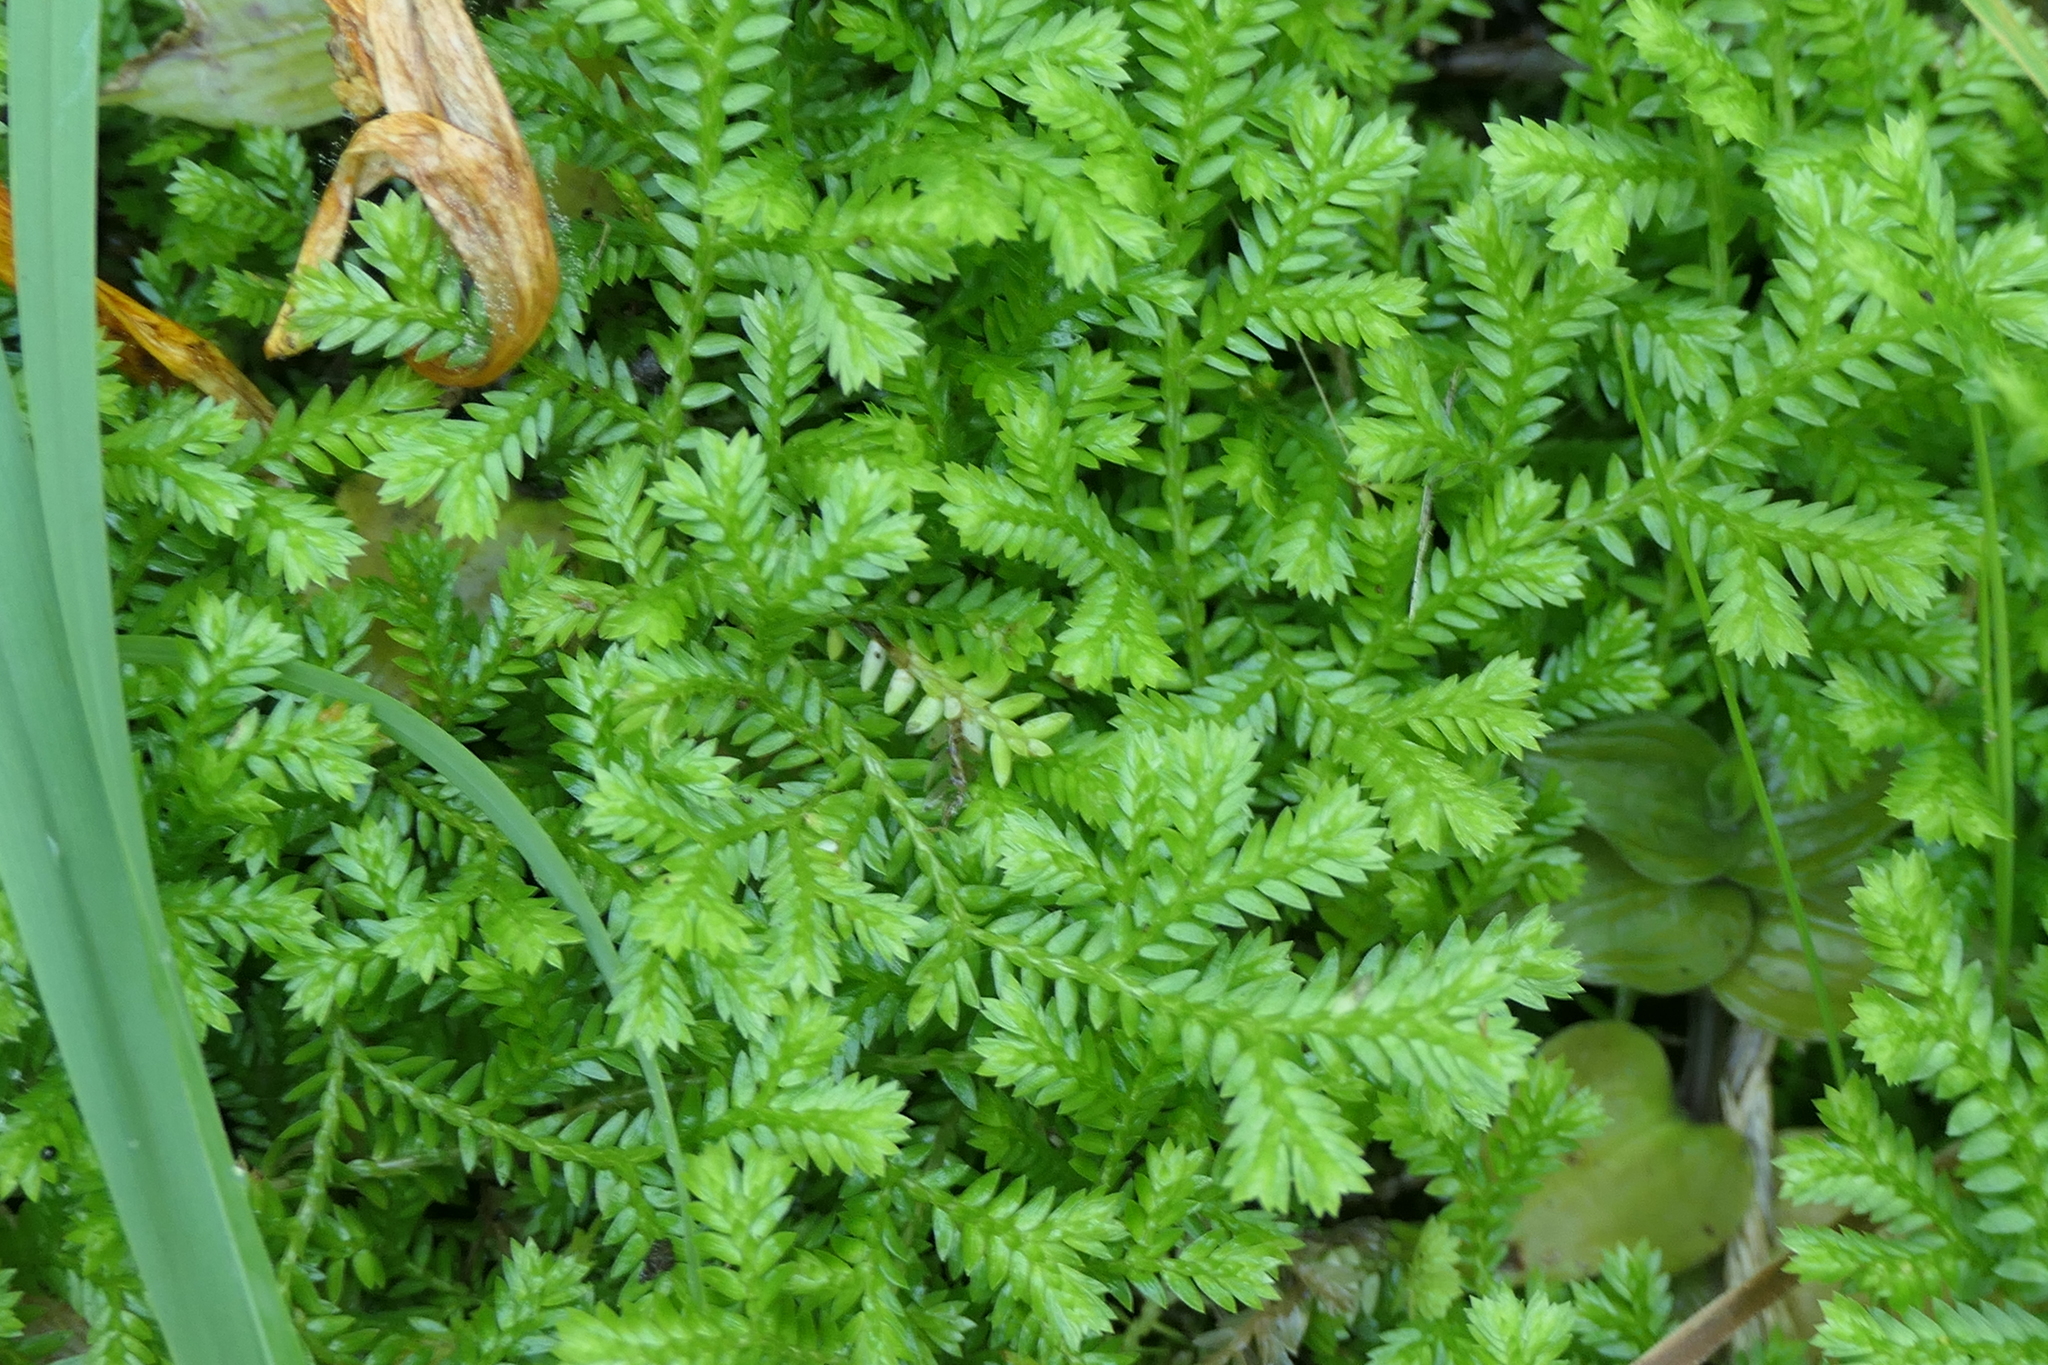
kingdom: Plantae
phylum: Tracheophyta
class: Lycopodiopsida
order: Selaginellales
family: Selaginellaceae
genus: Selaginella
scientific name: Selaginella kraussiana
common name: Krauss' spikemoss
